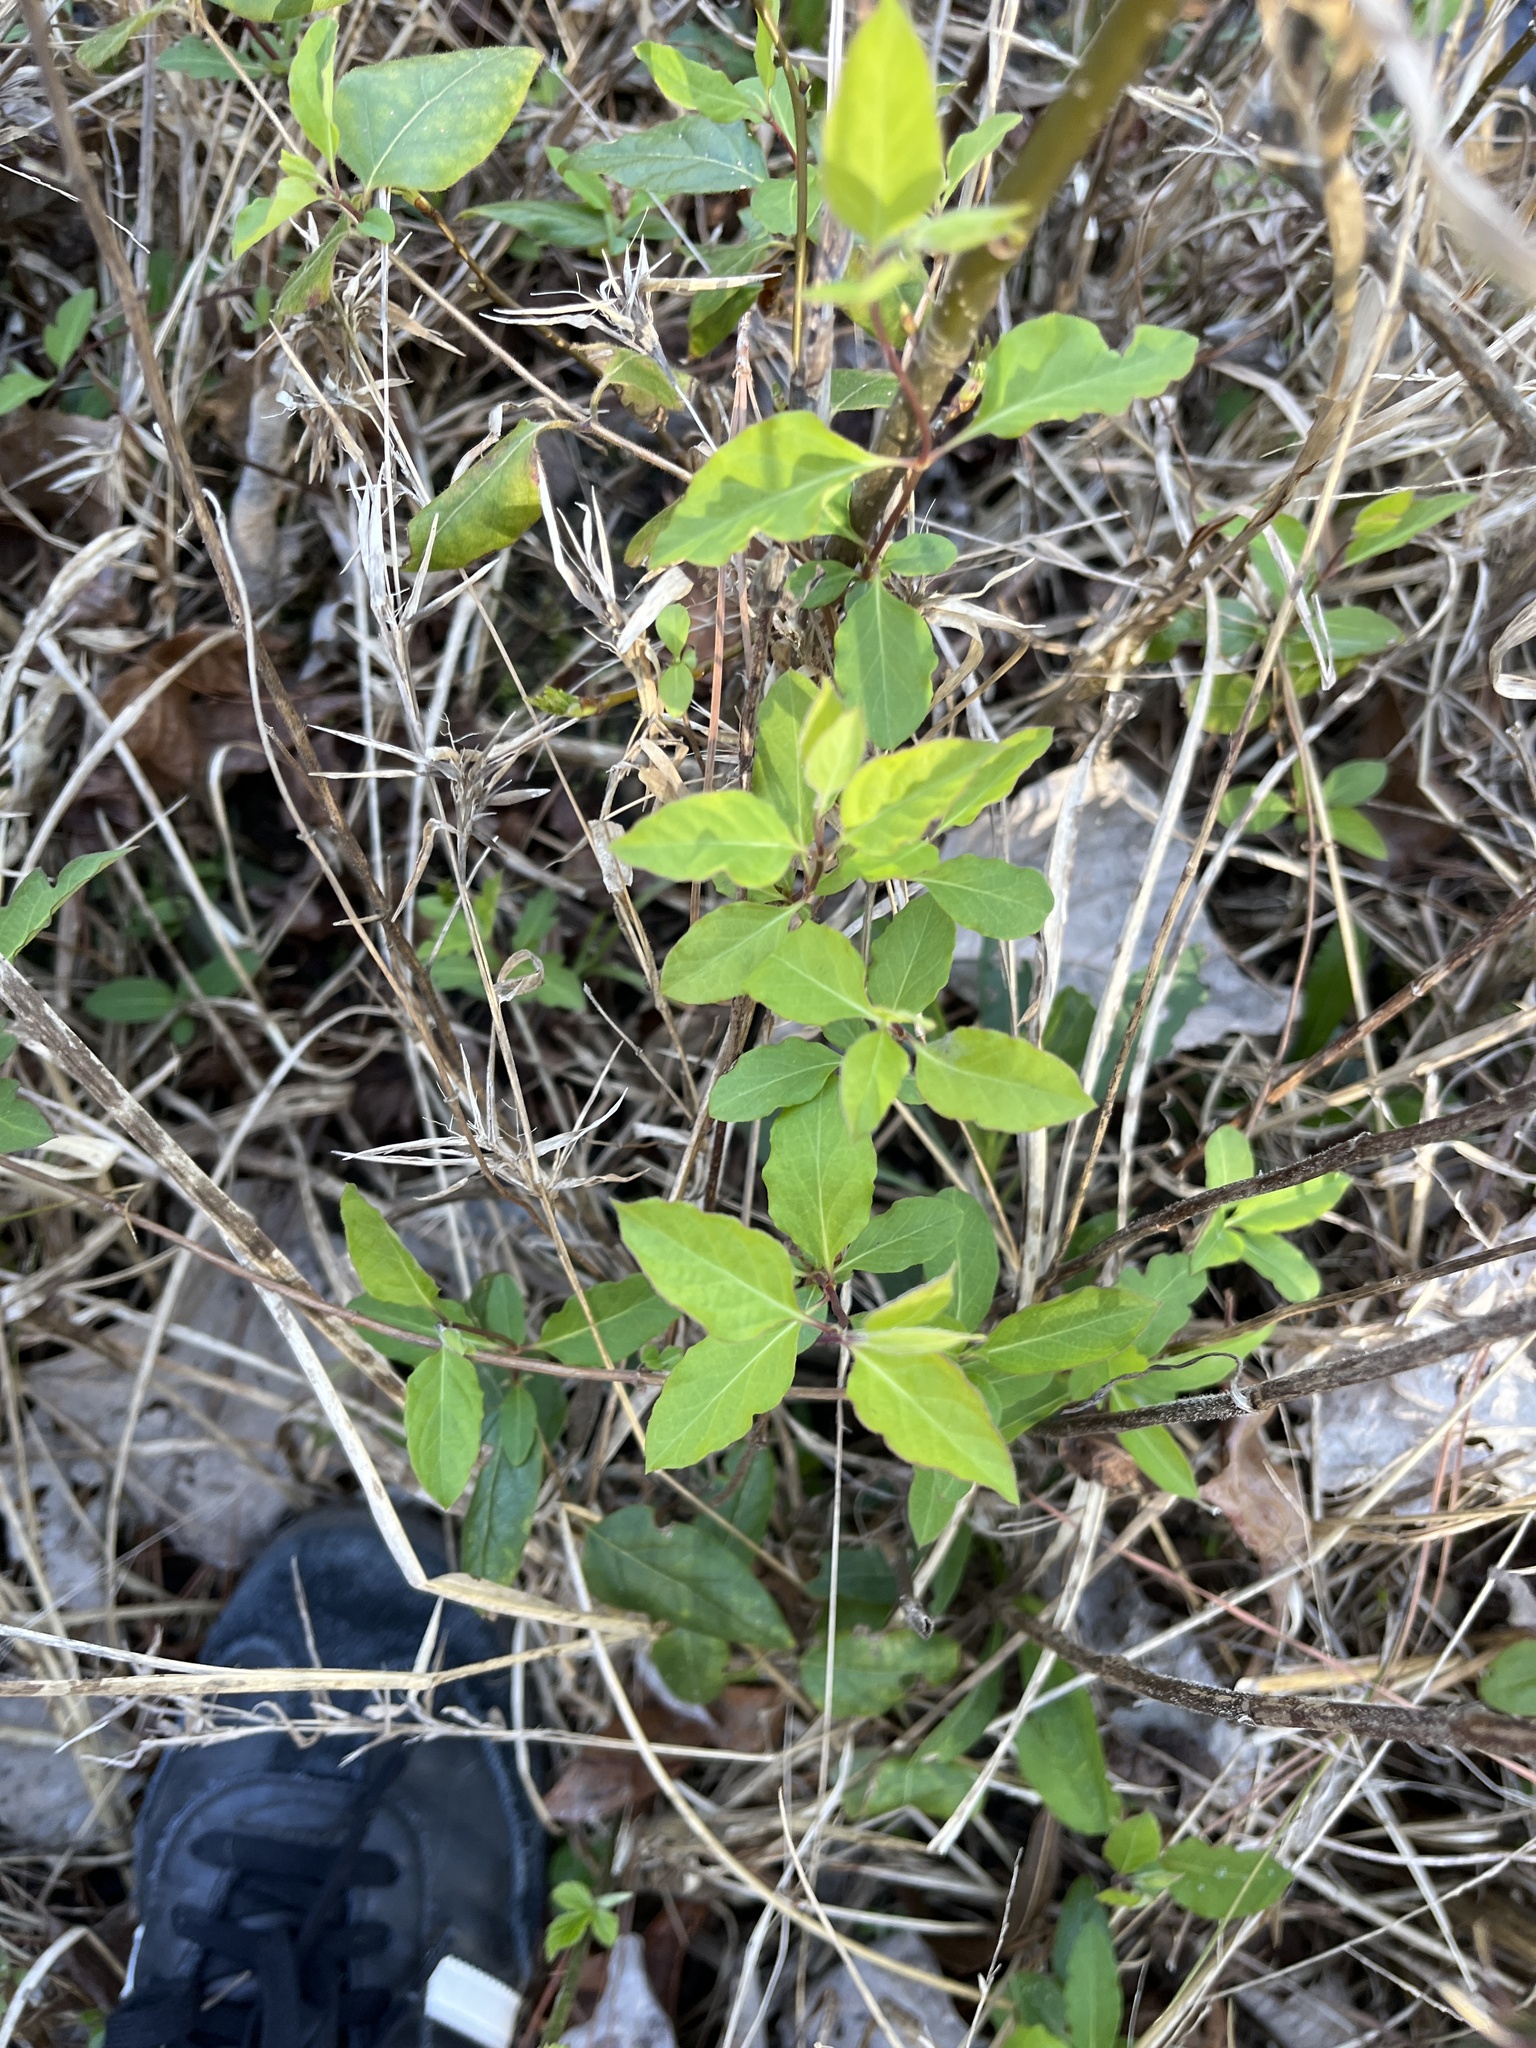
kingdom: Plantae
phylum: Tracheophyta
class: Magnoliopsida
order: Dipsacales
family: Caprifoliaceae
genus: Lonicera
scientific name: Lonicera japonica
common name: Japanese honeysuckle
